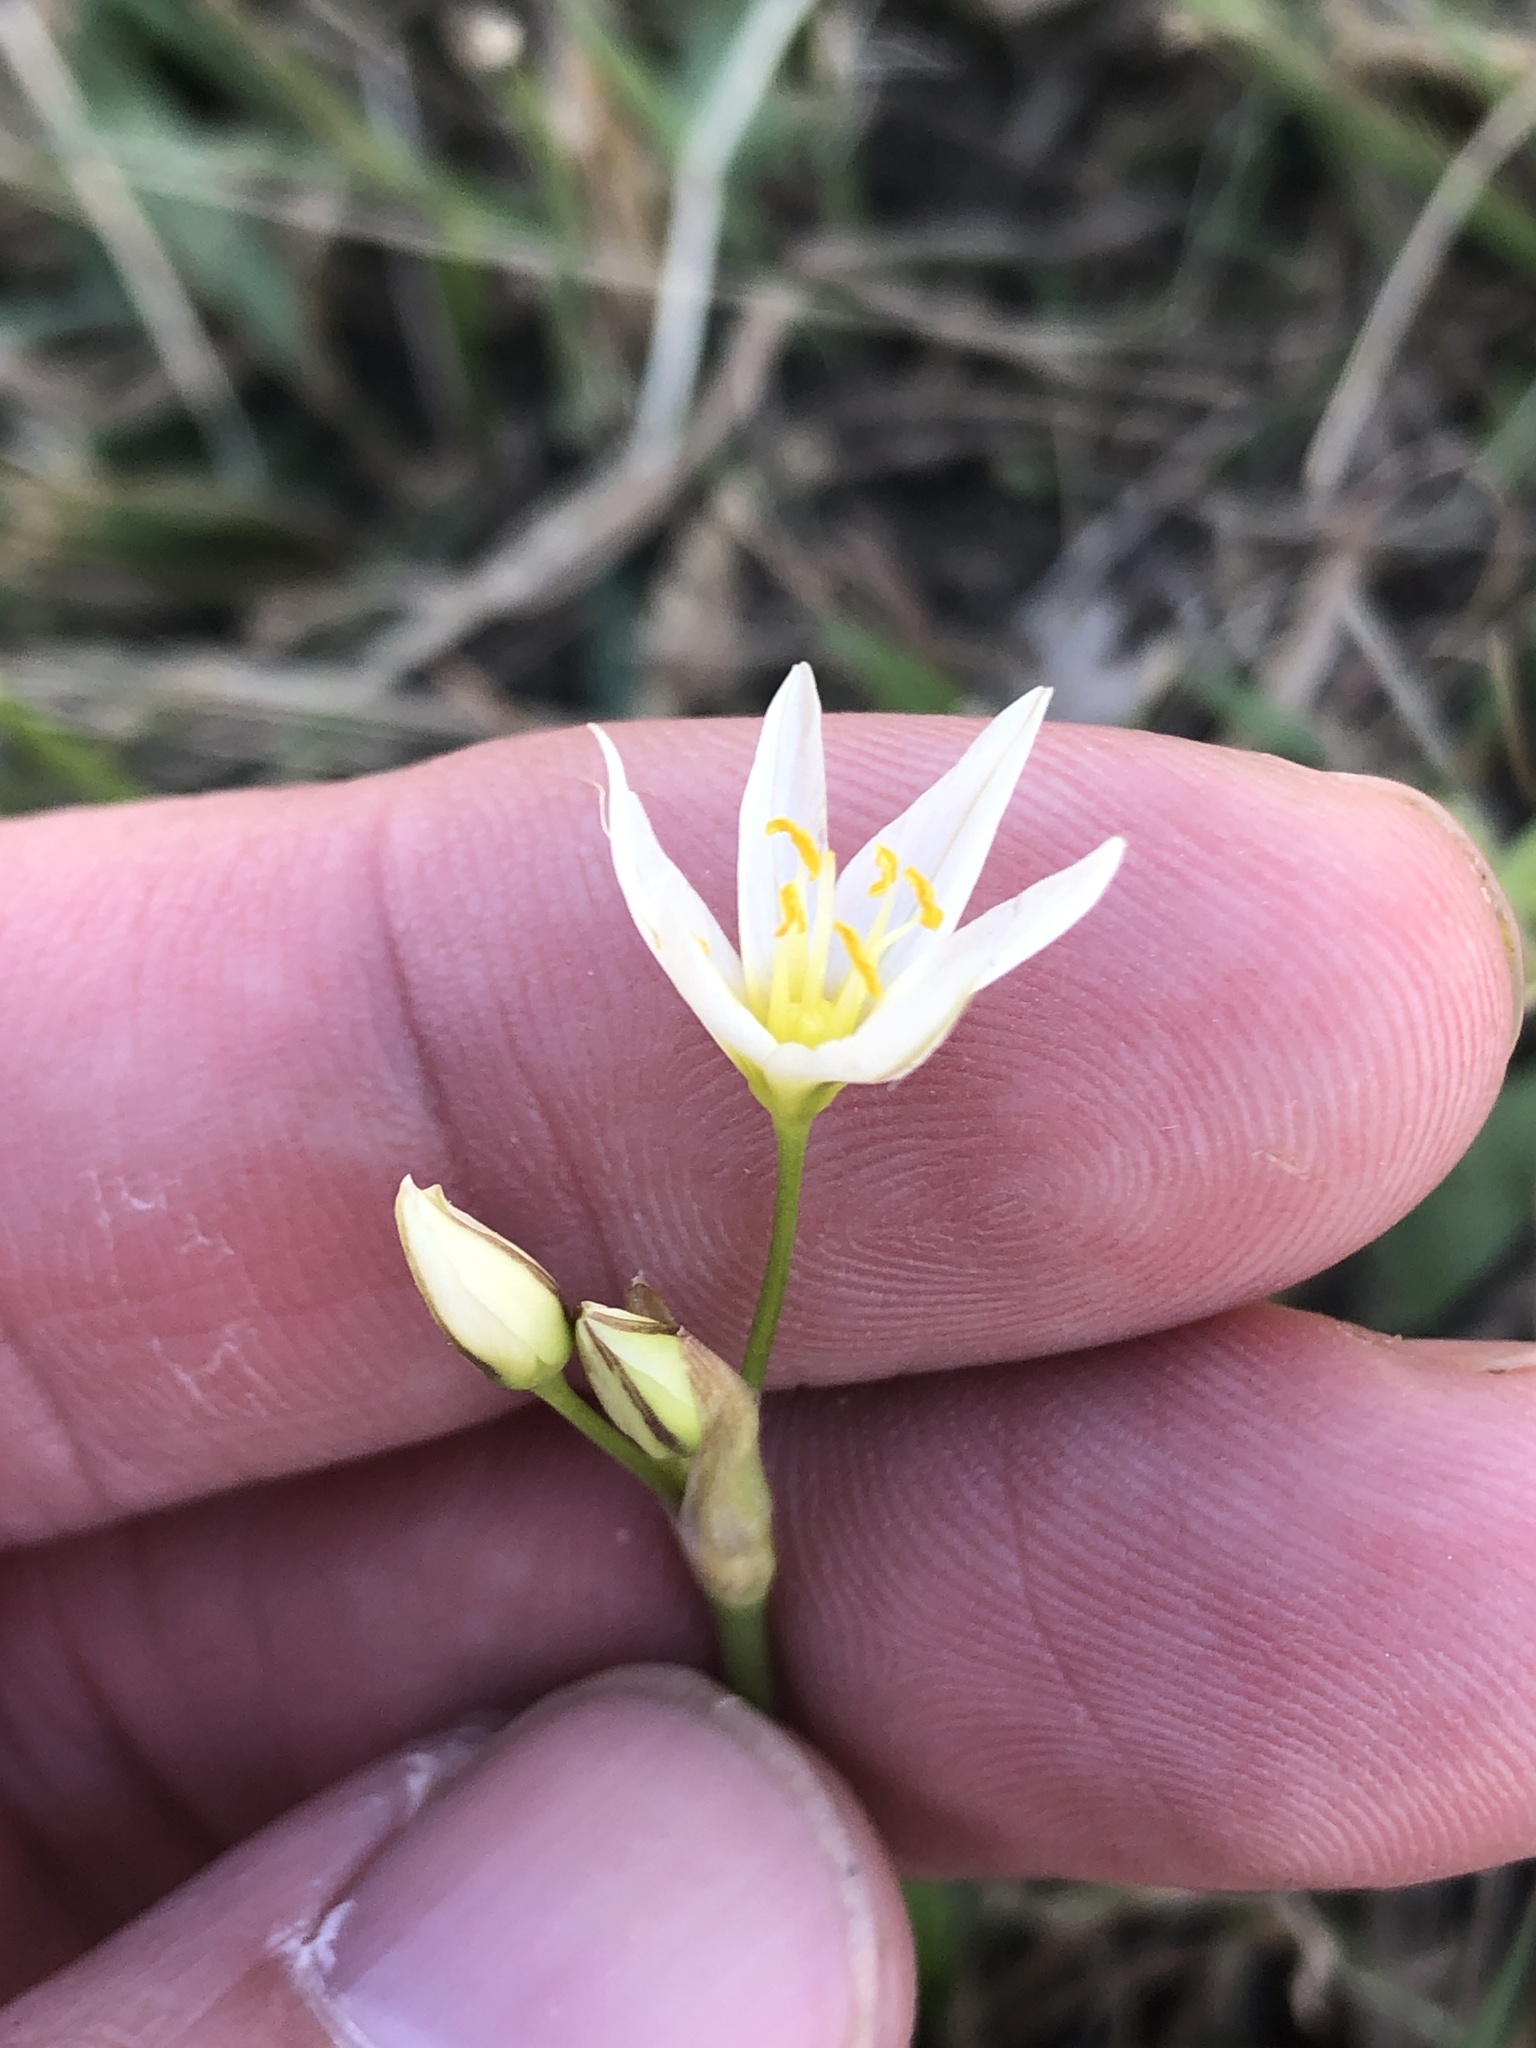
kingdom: Plantae
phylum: Tracheophyta
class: Liliopsida
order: Asparagales
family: Amaryllidaceae
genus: Nothoscordum
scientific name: Nothoscordum bivalve
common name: Crow-poison
